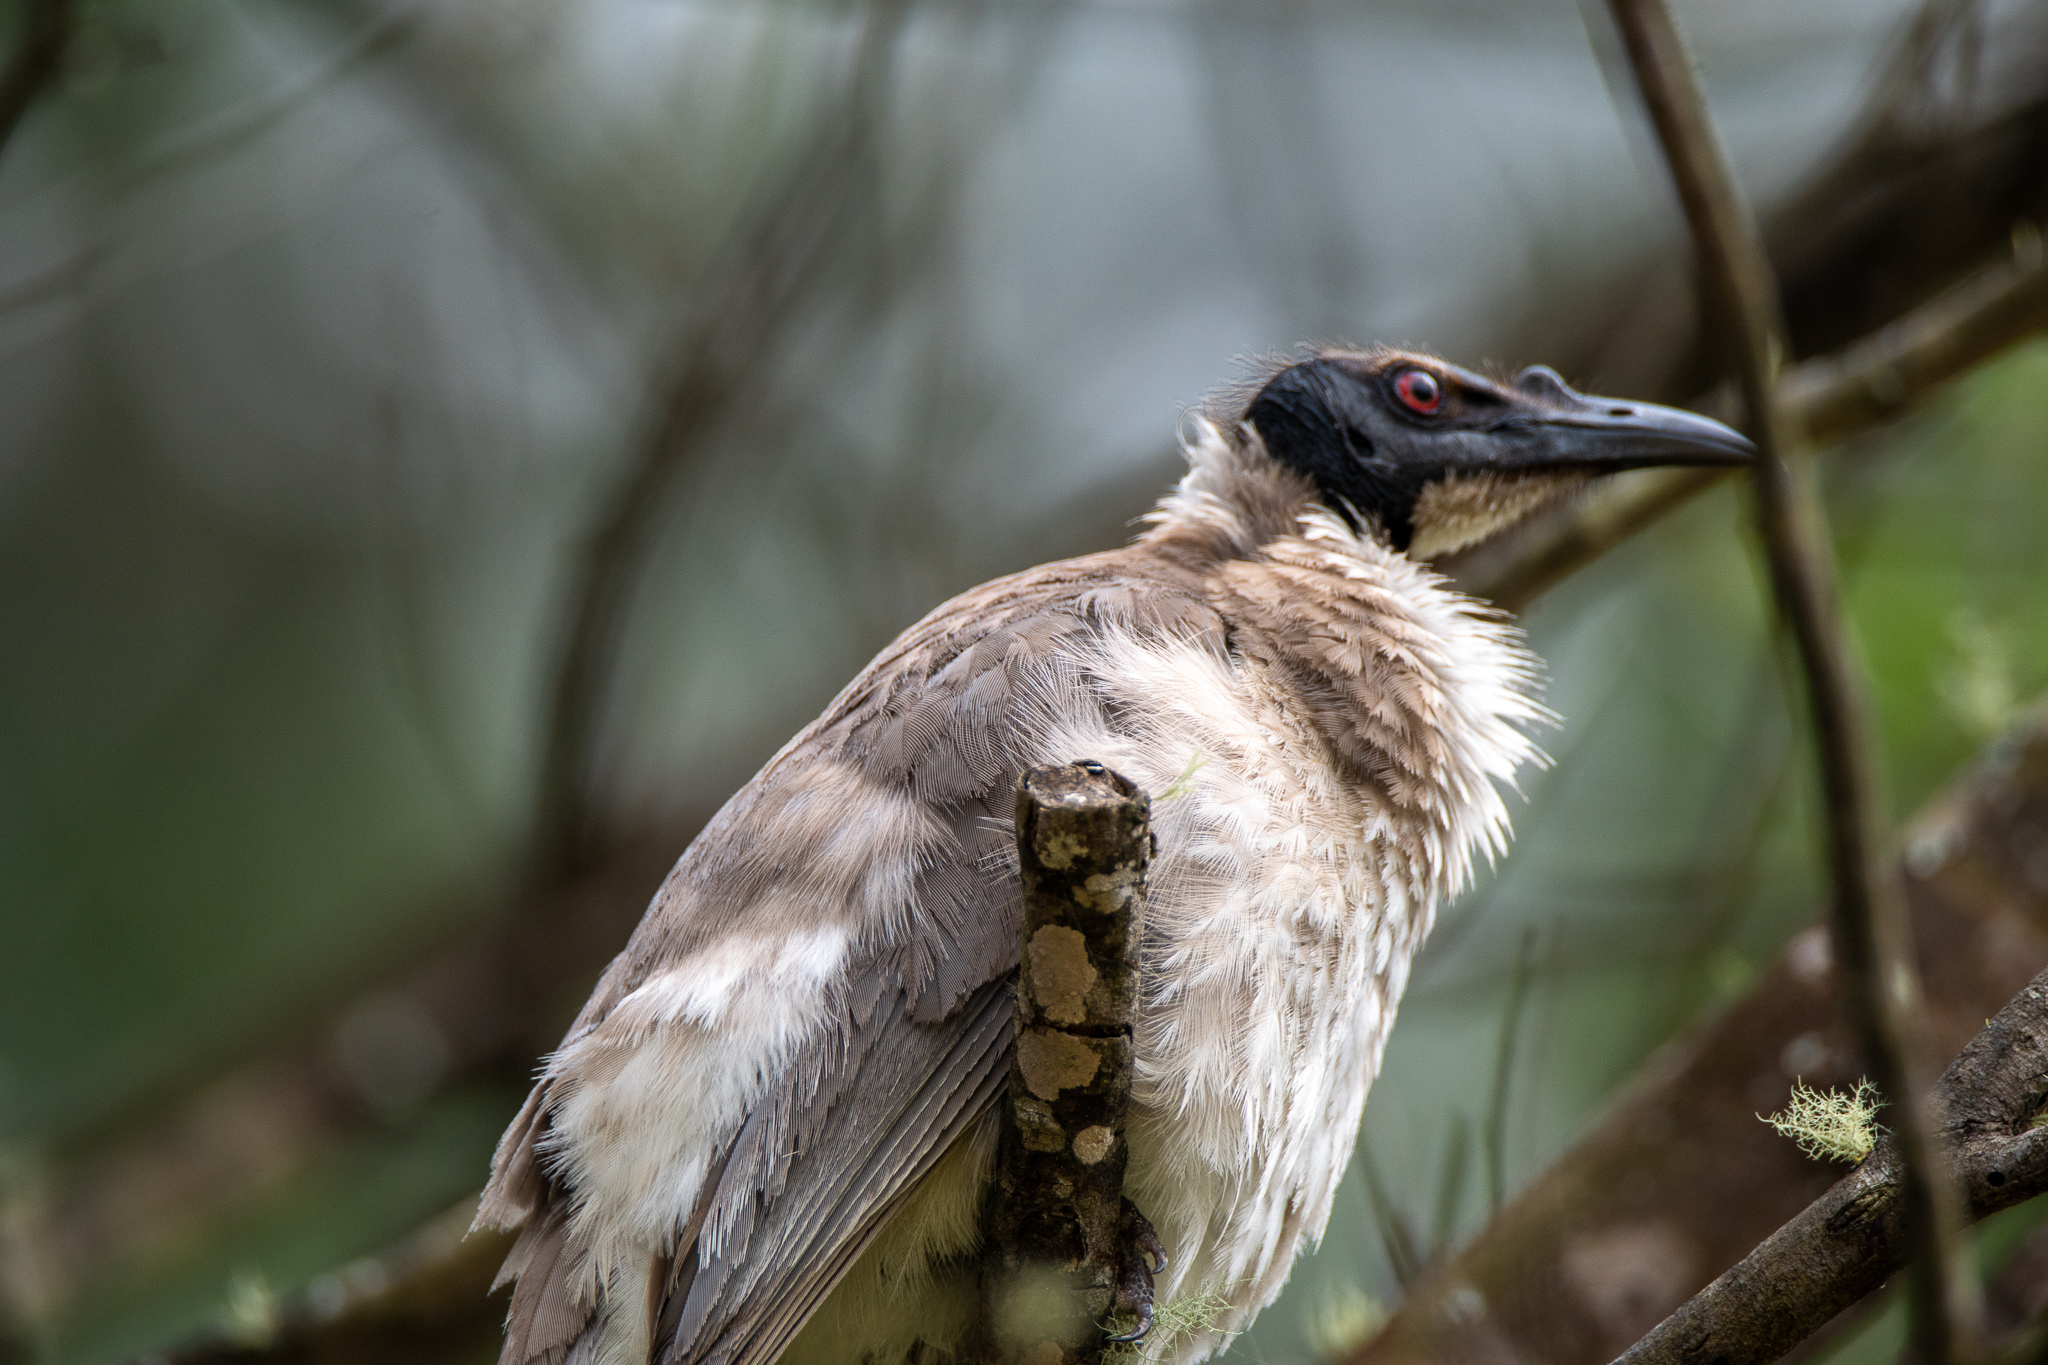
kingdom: Animalia
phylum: Chordata
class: Aves
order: Passeriformes
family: Meliphagidae
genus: Philemon
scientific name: Philemon corniculatus
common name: Noisy friarbird
